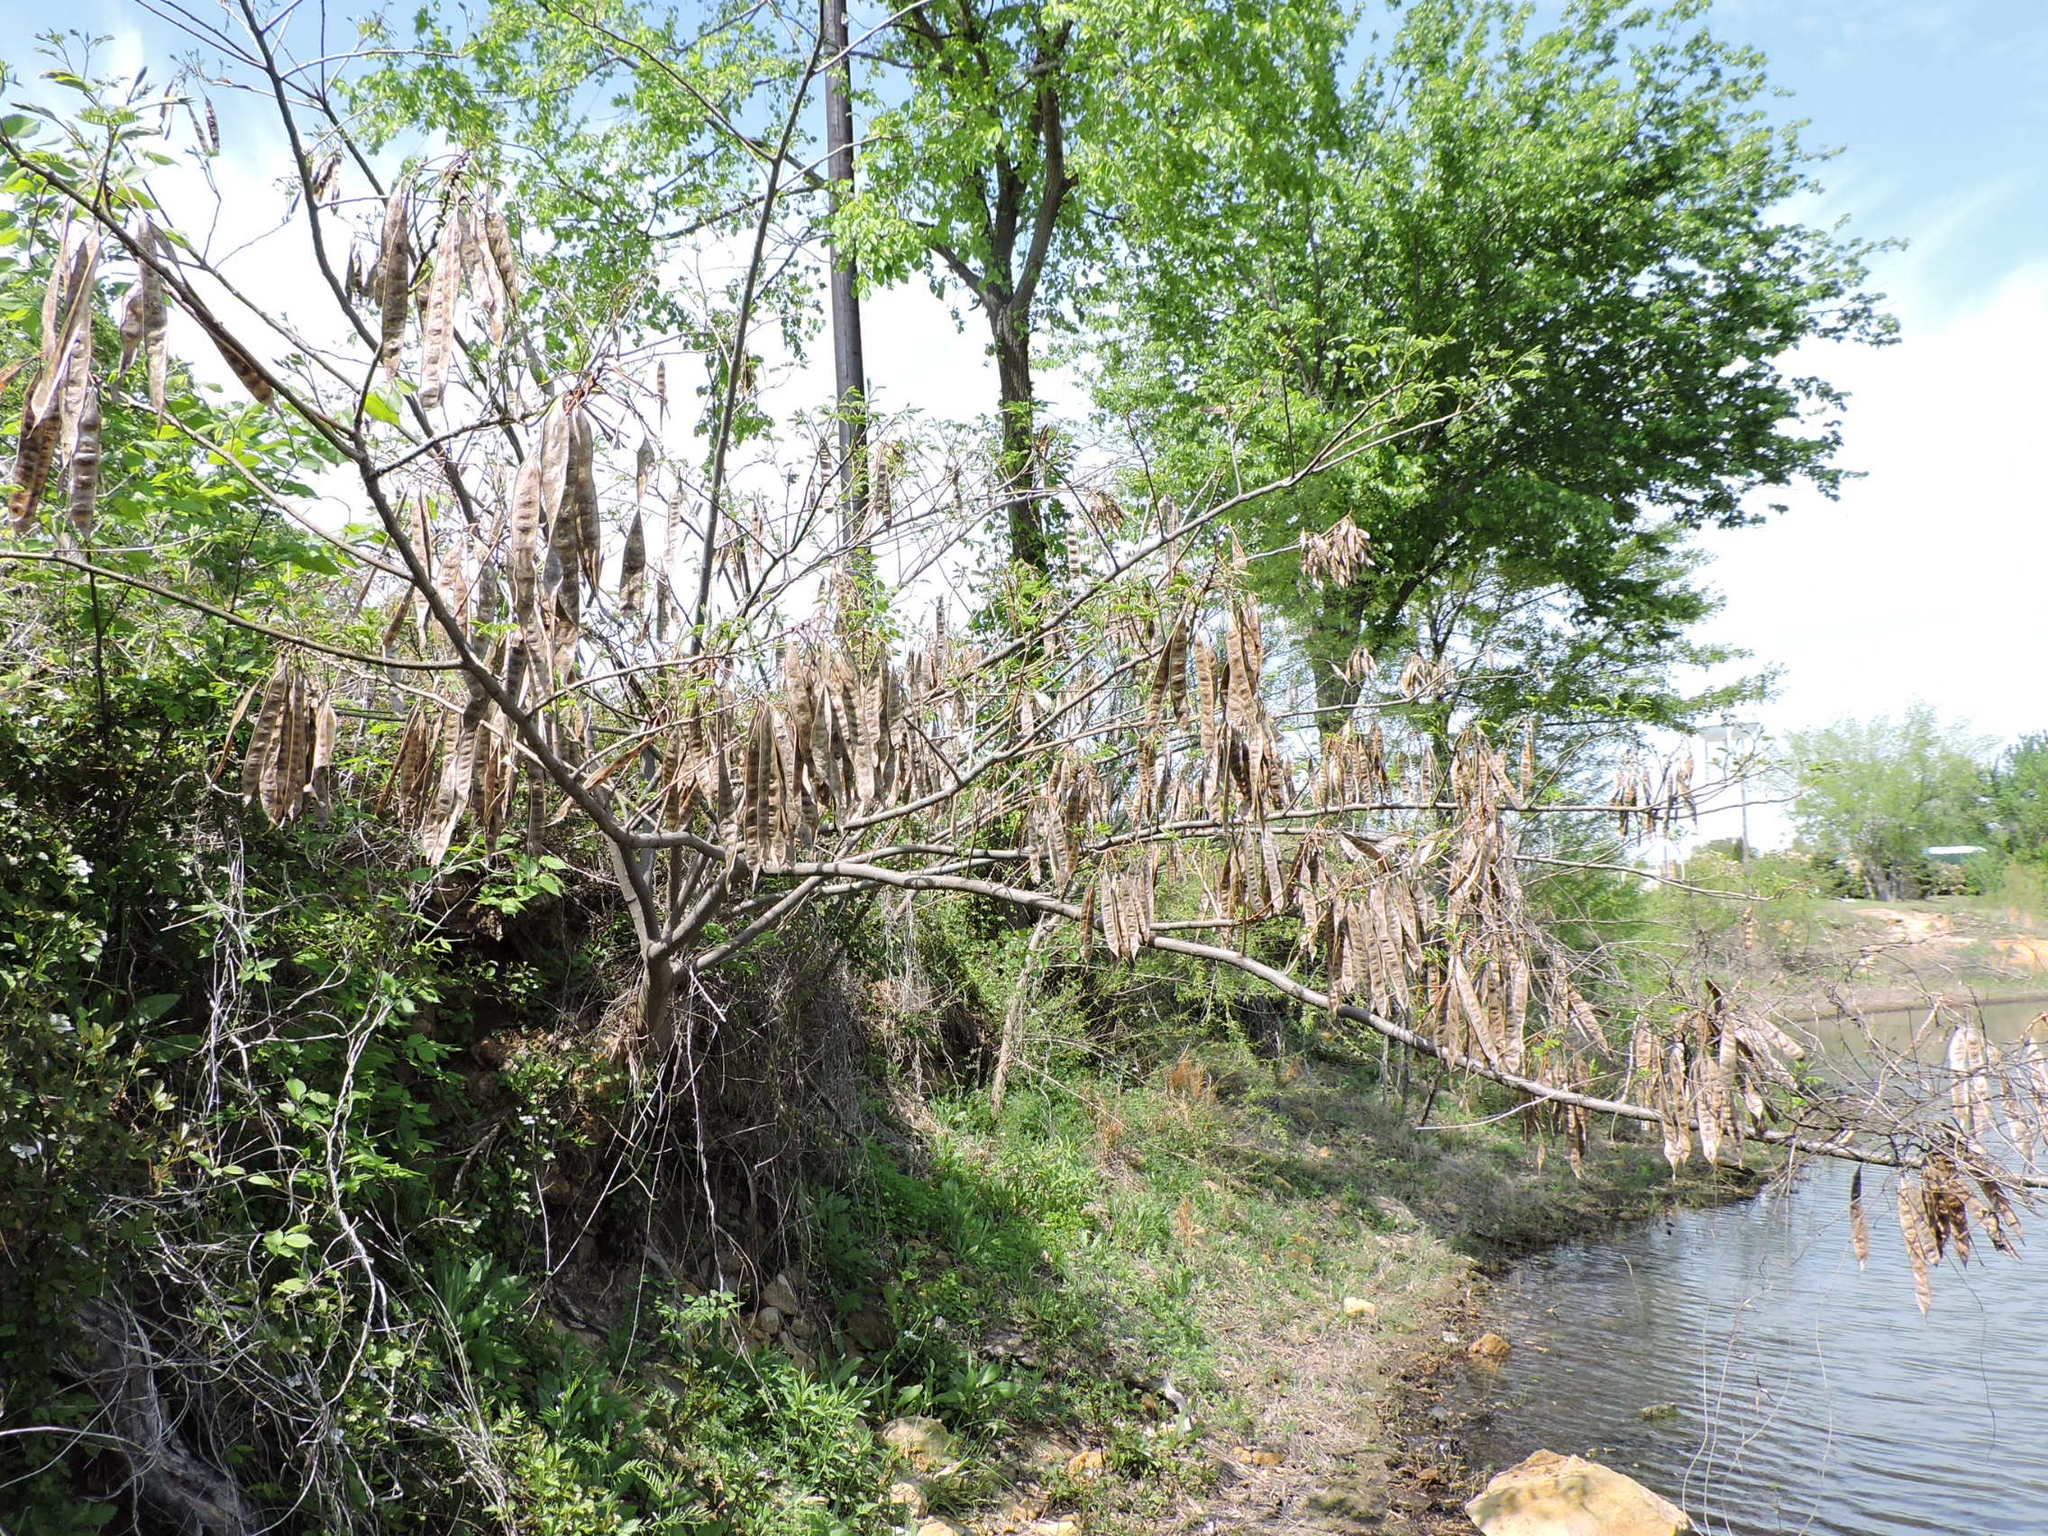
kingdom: Plantae
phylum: Tracheophyta
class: Magnoliopsida
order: Fabales
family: Fabaceae
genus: Albizia
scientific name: Albizia julibrissin
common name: Silktree
